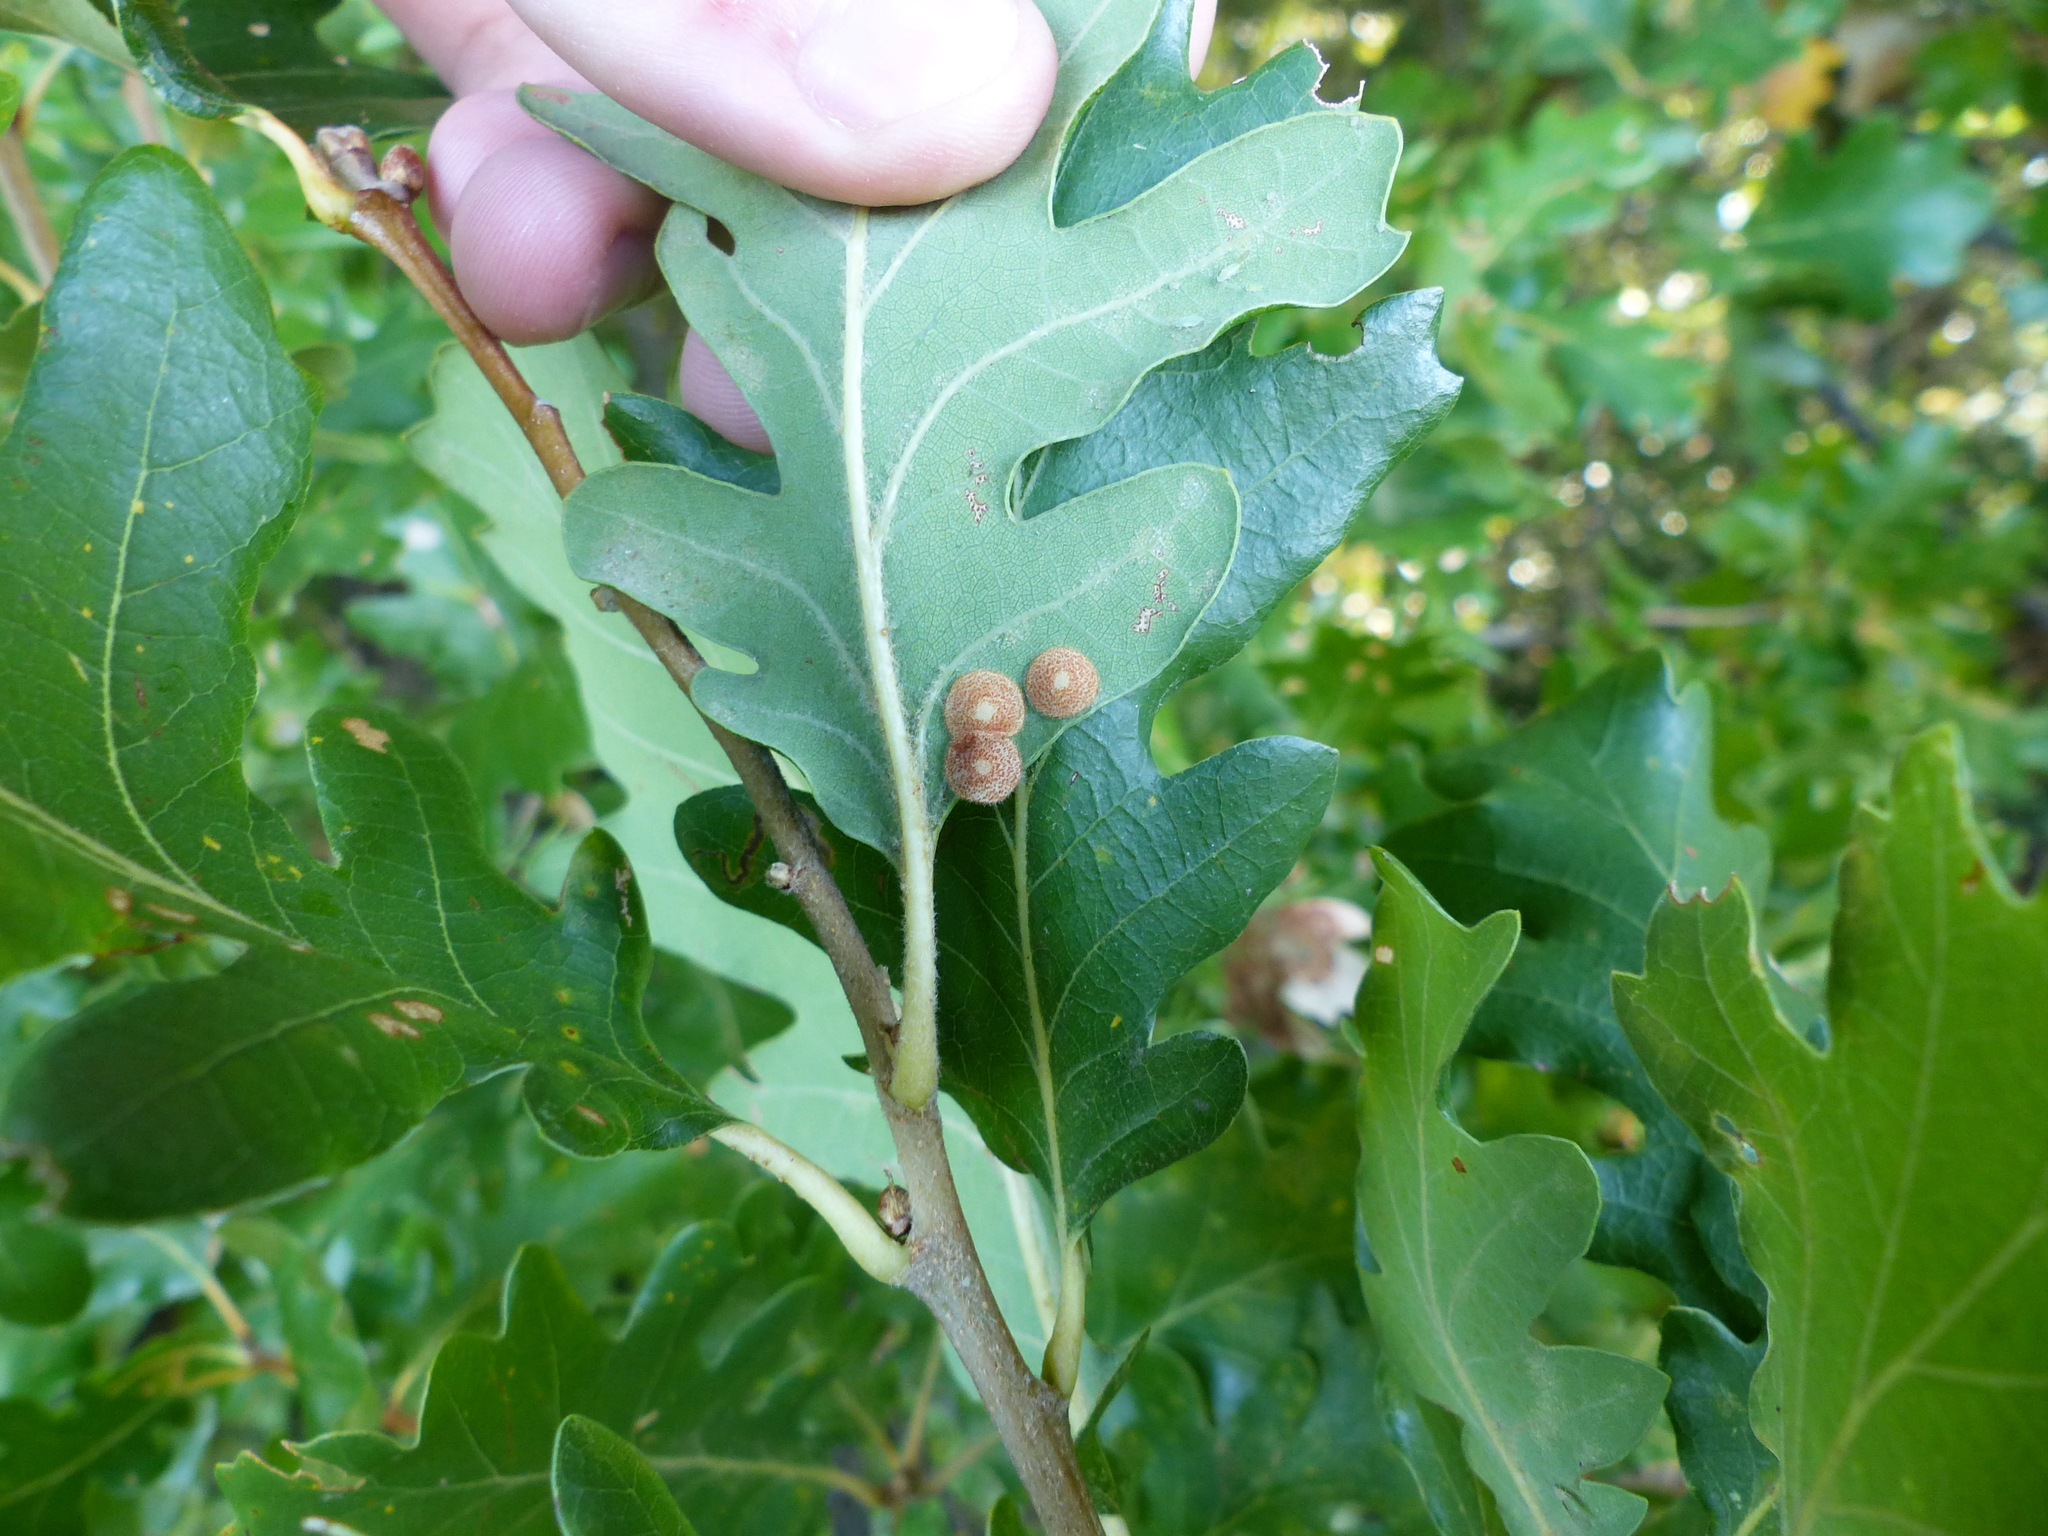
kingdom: Animalia
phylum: Arthropoda
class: Insecta
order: Hymenoptera
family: Cynipidae
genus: Neuroterus
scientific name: Neuroterus quercusbaccarum
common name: Common spangle gall
